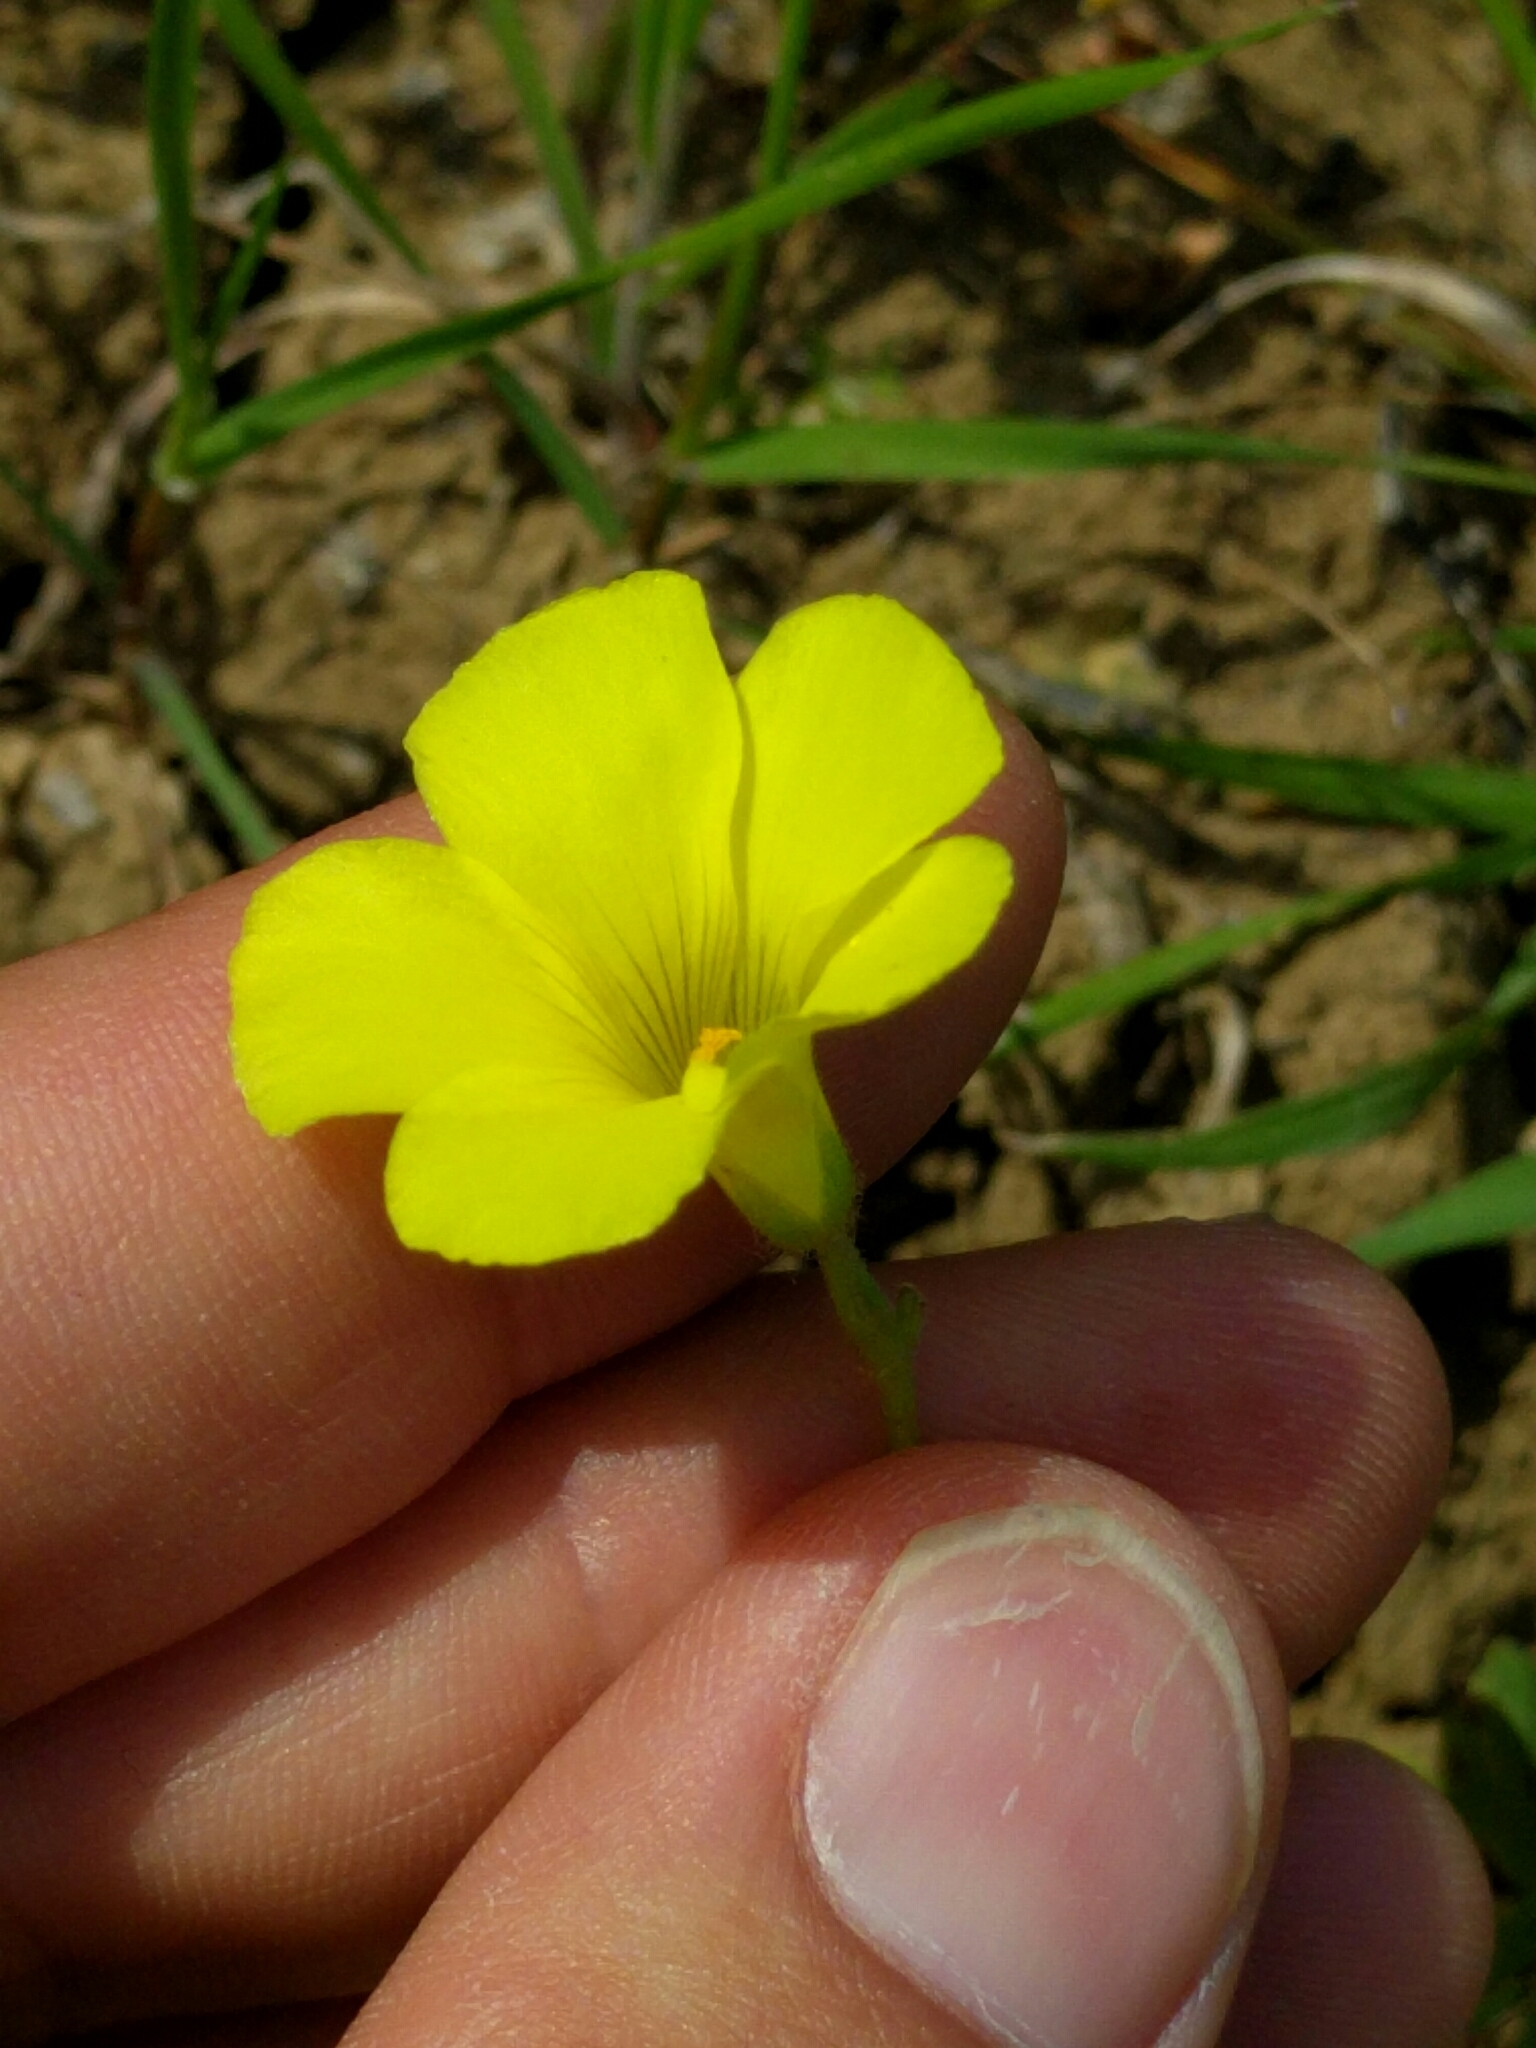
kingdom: Plantae
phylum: Tracheophyta
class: Magnoliopsida
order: Oxalidales
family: Oxalidaceae
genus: Oxalis
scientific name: Oxalis pes-caprae
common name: Bermuda-buttercup
